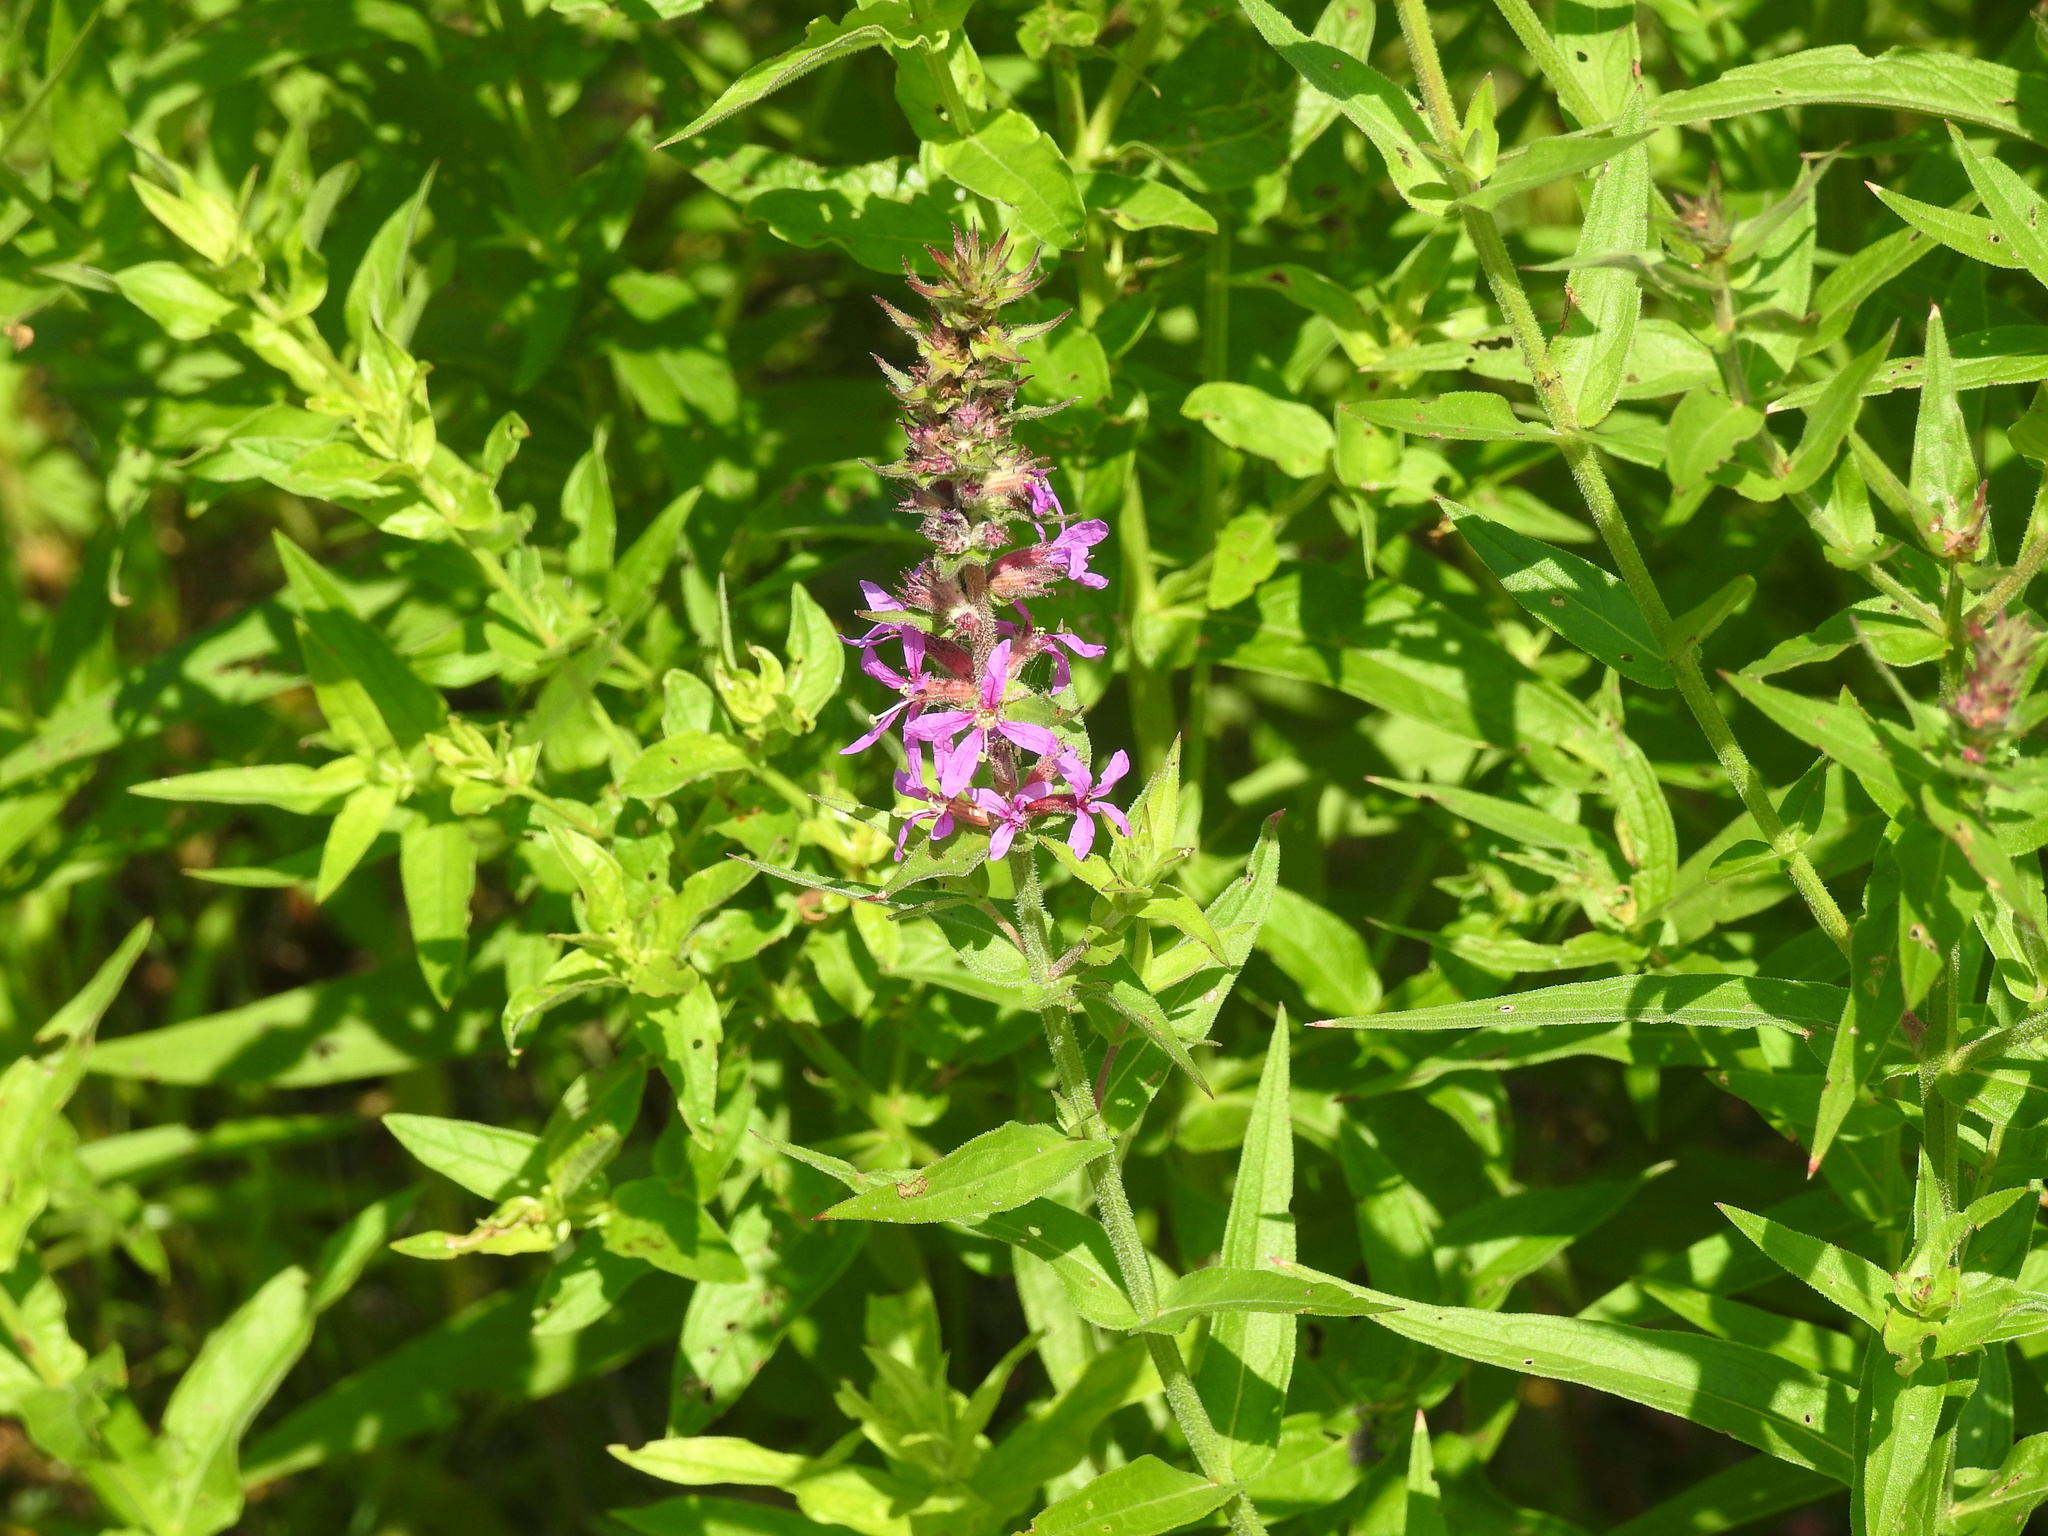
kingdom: Plantae
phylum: Tracheophyta
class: Magnoliopsida
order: Myrtales
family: Lythraceae
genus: Lythrum
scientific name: Lythrum salicaria
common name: Purple loosestrife
